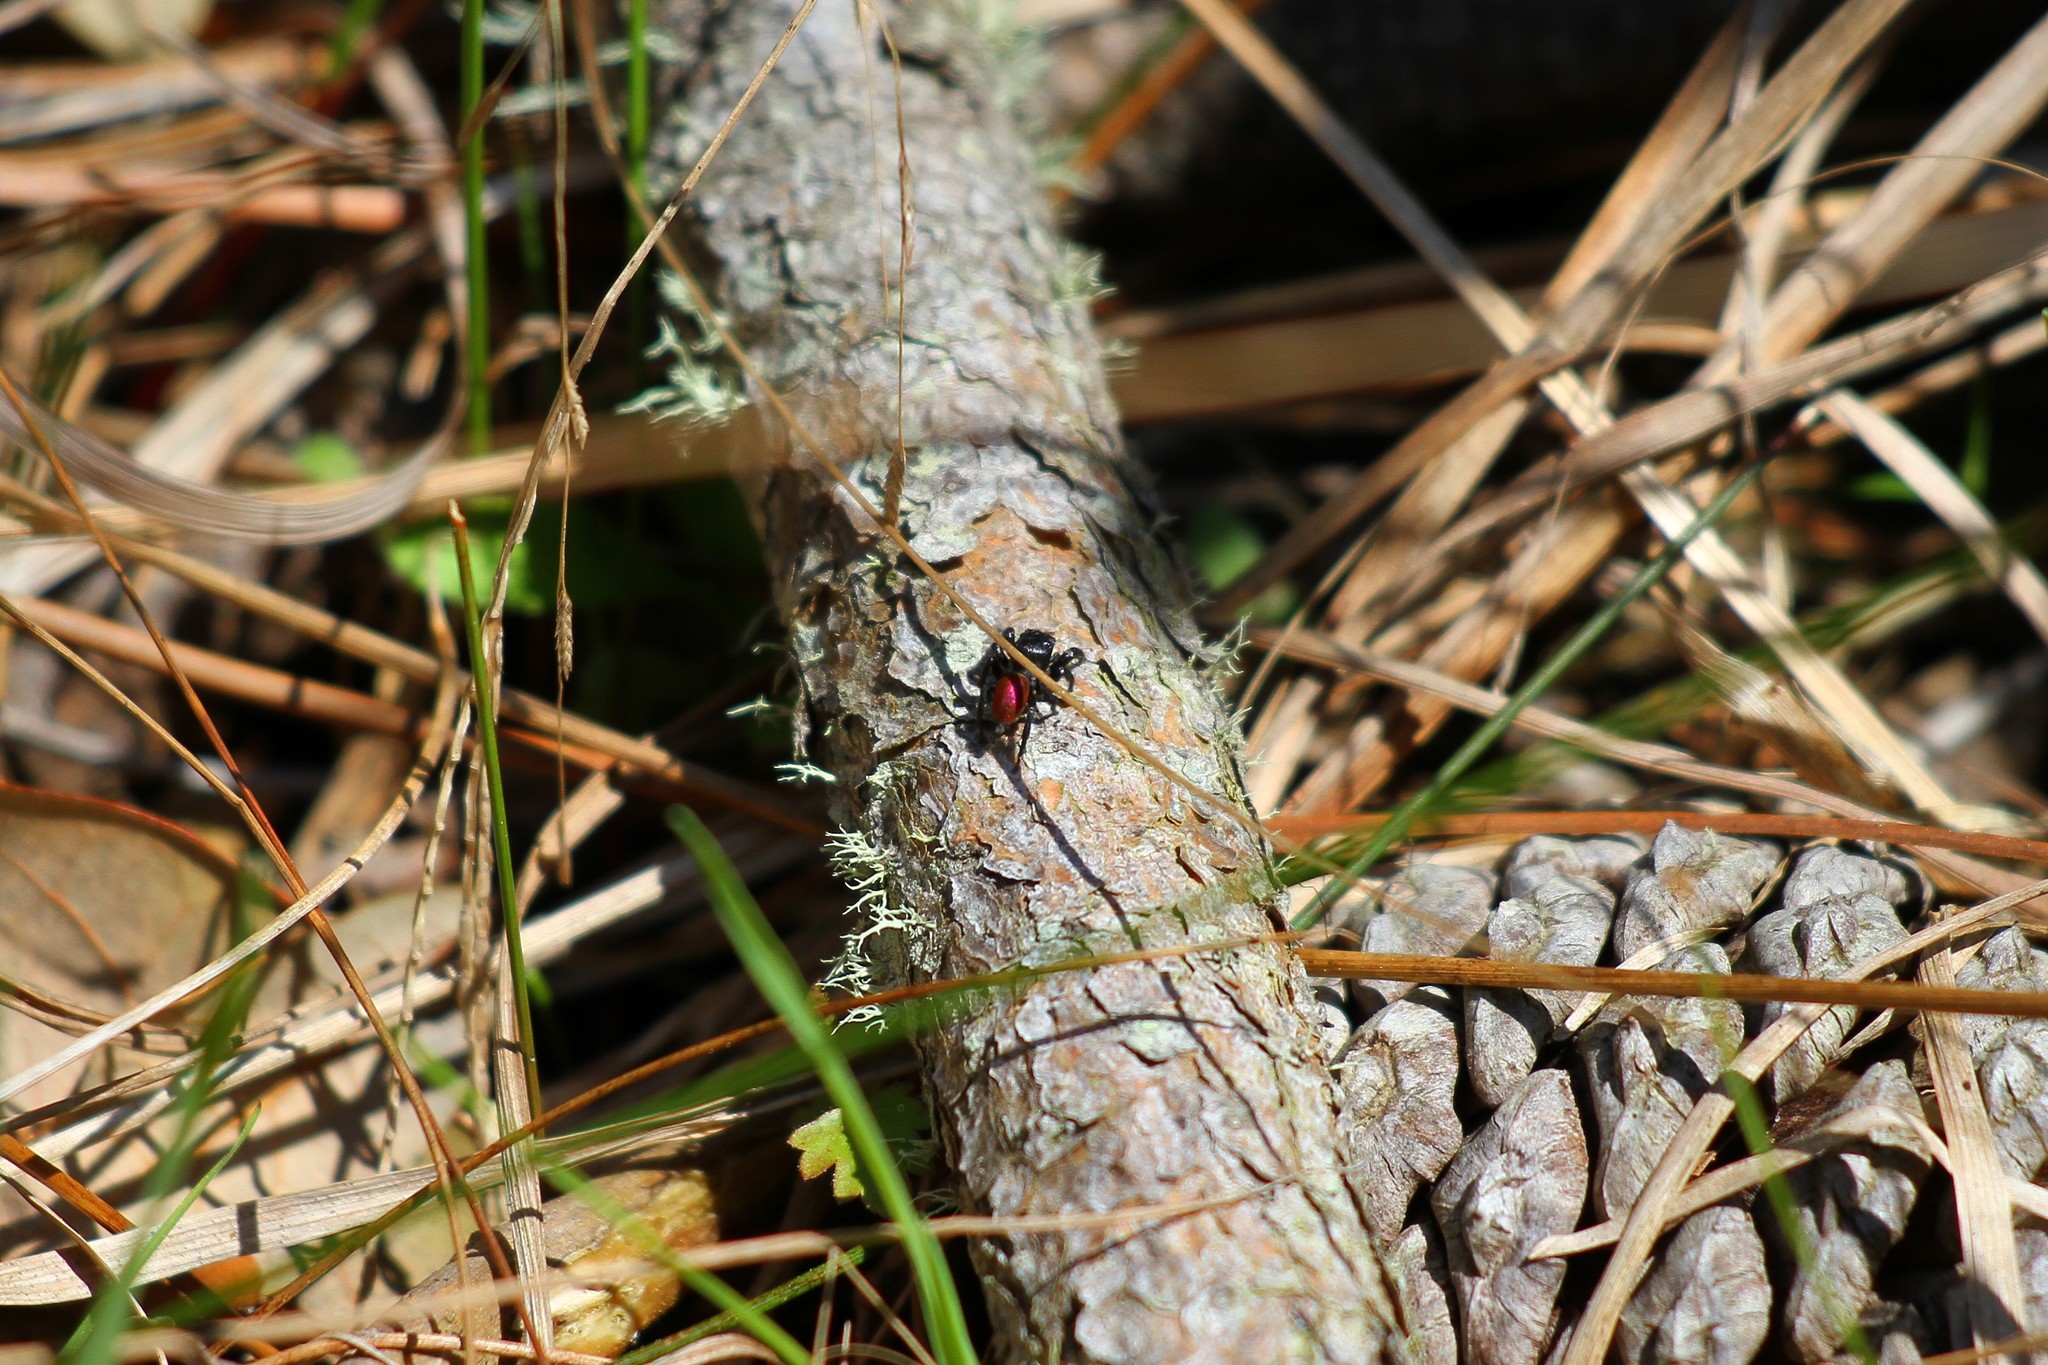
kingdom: Animalia
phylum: Arthropoda
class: Arachnida
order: Araneae
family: Salticidae
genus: Habronattus
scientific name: Habronattus decorus
